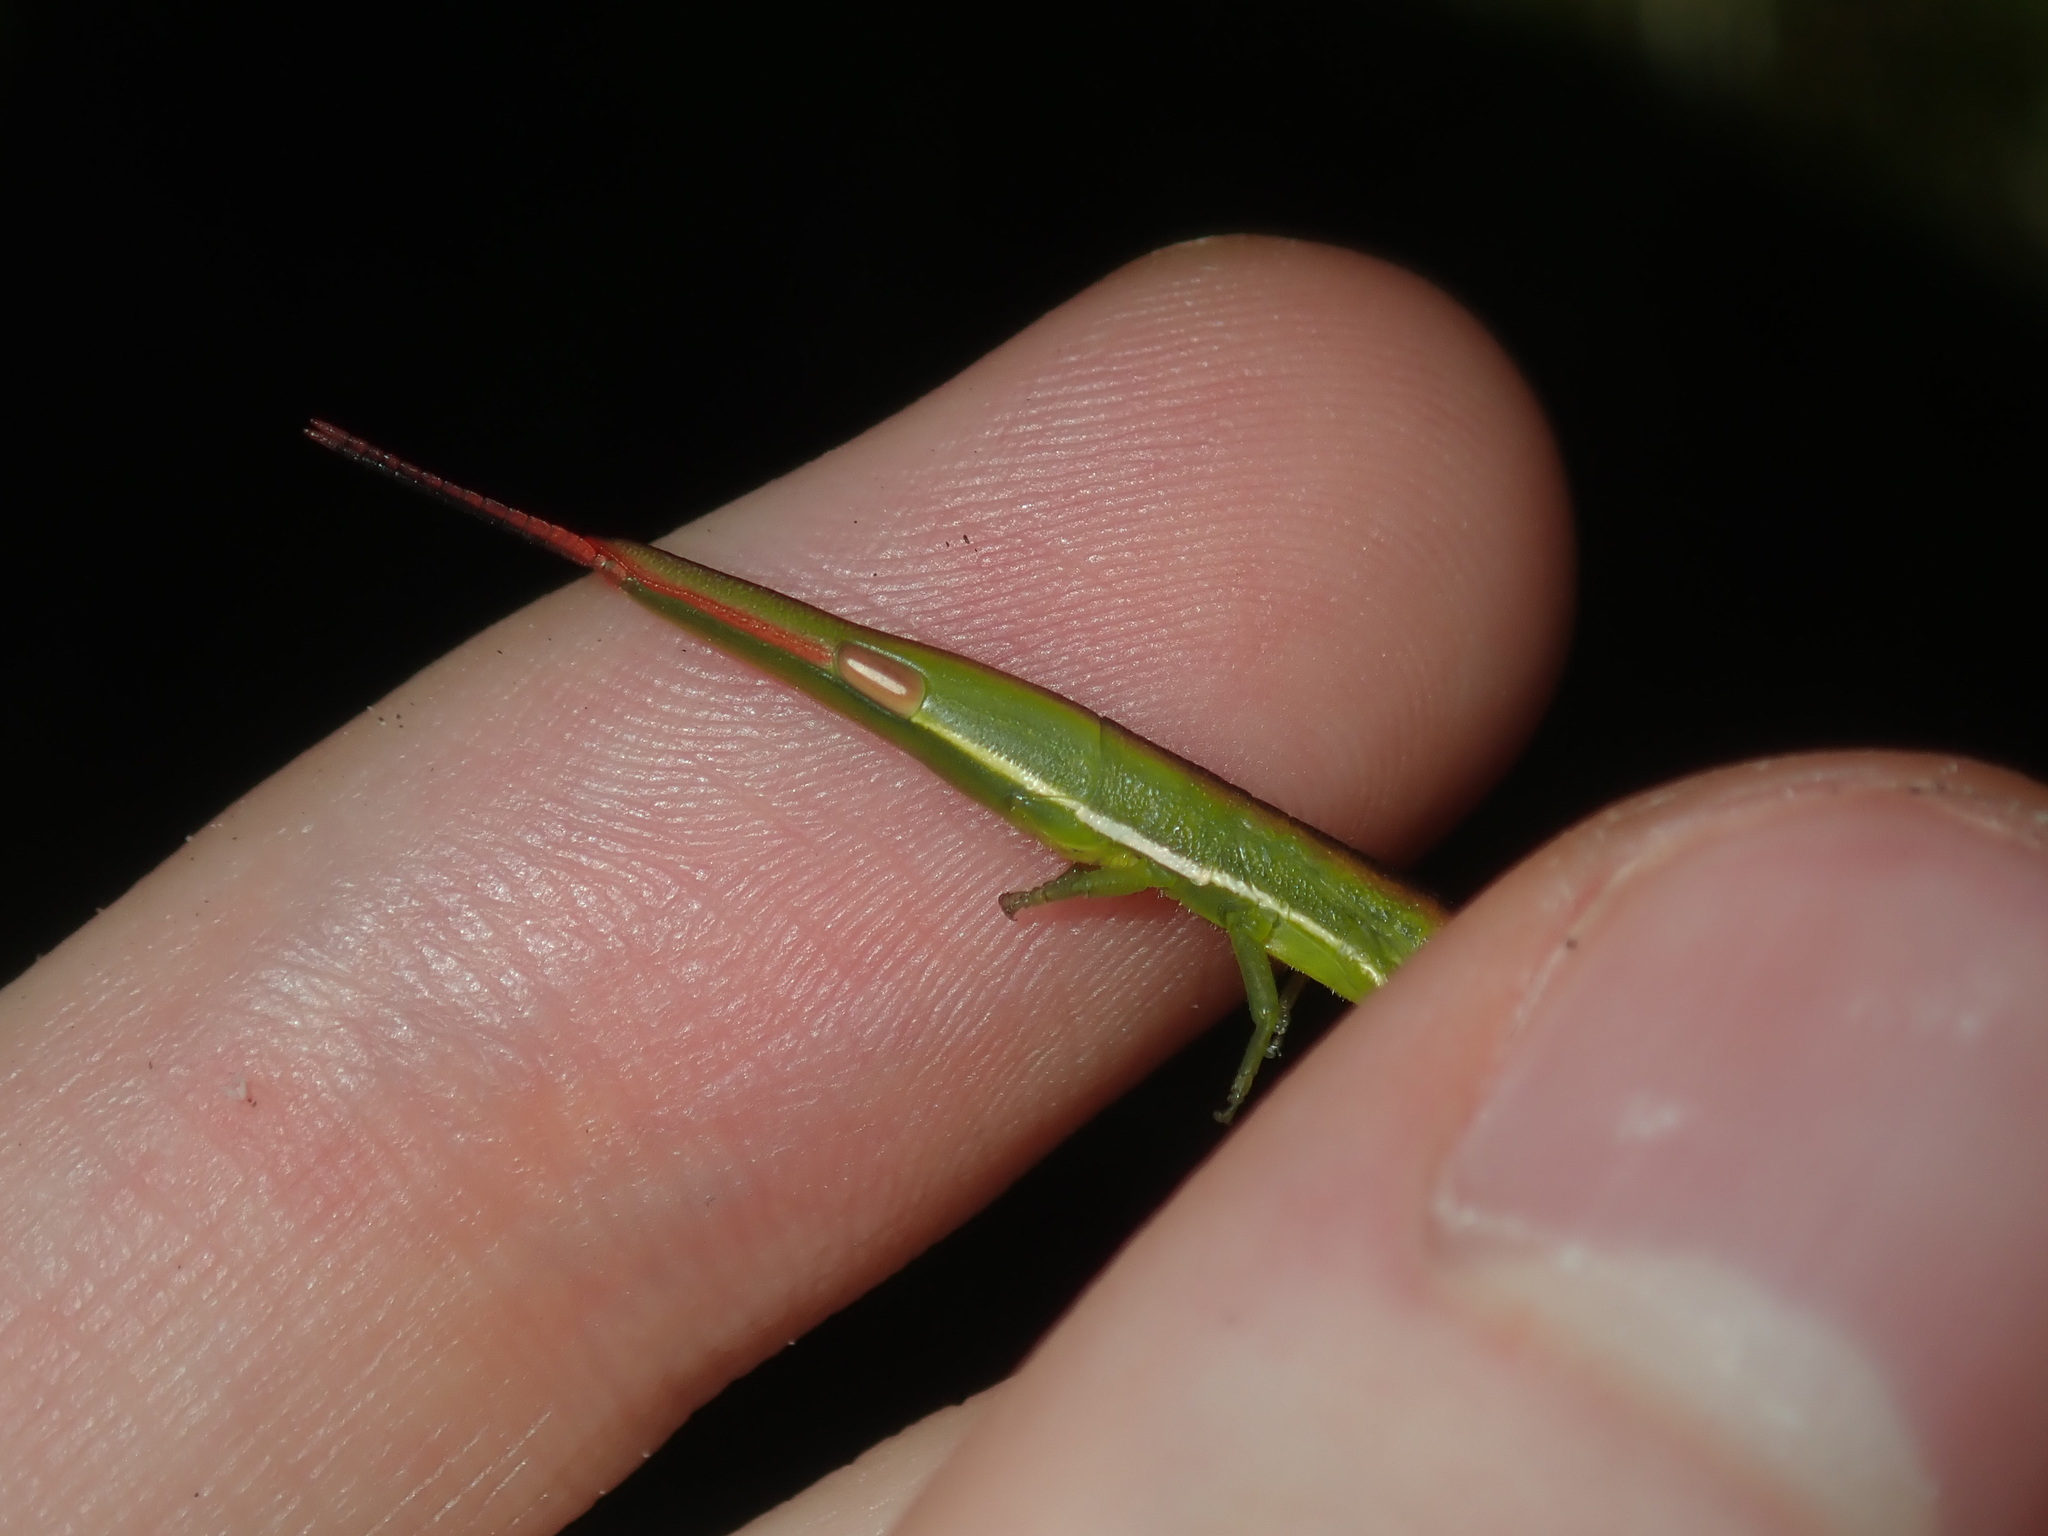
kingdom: Animalia
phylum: Arthropoda
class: Insecta
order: Orthoptera
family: Pyrgomorphidae
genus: Psednura
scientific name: Psednura pedestris
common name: Common psednura
